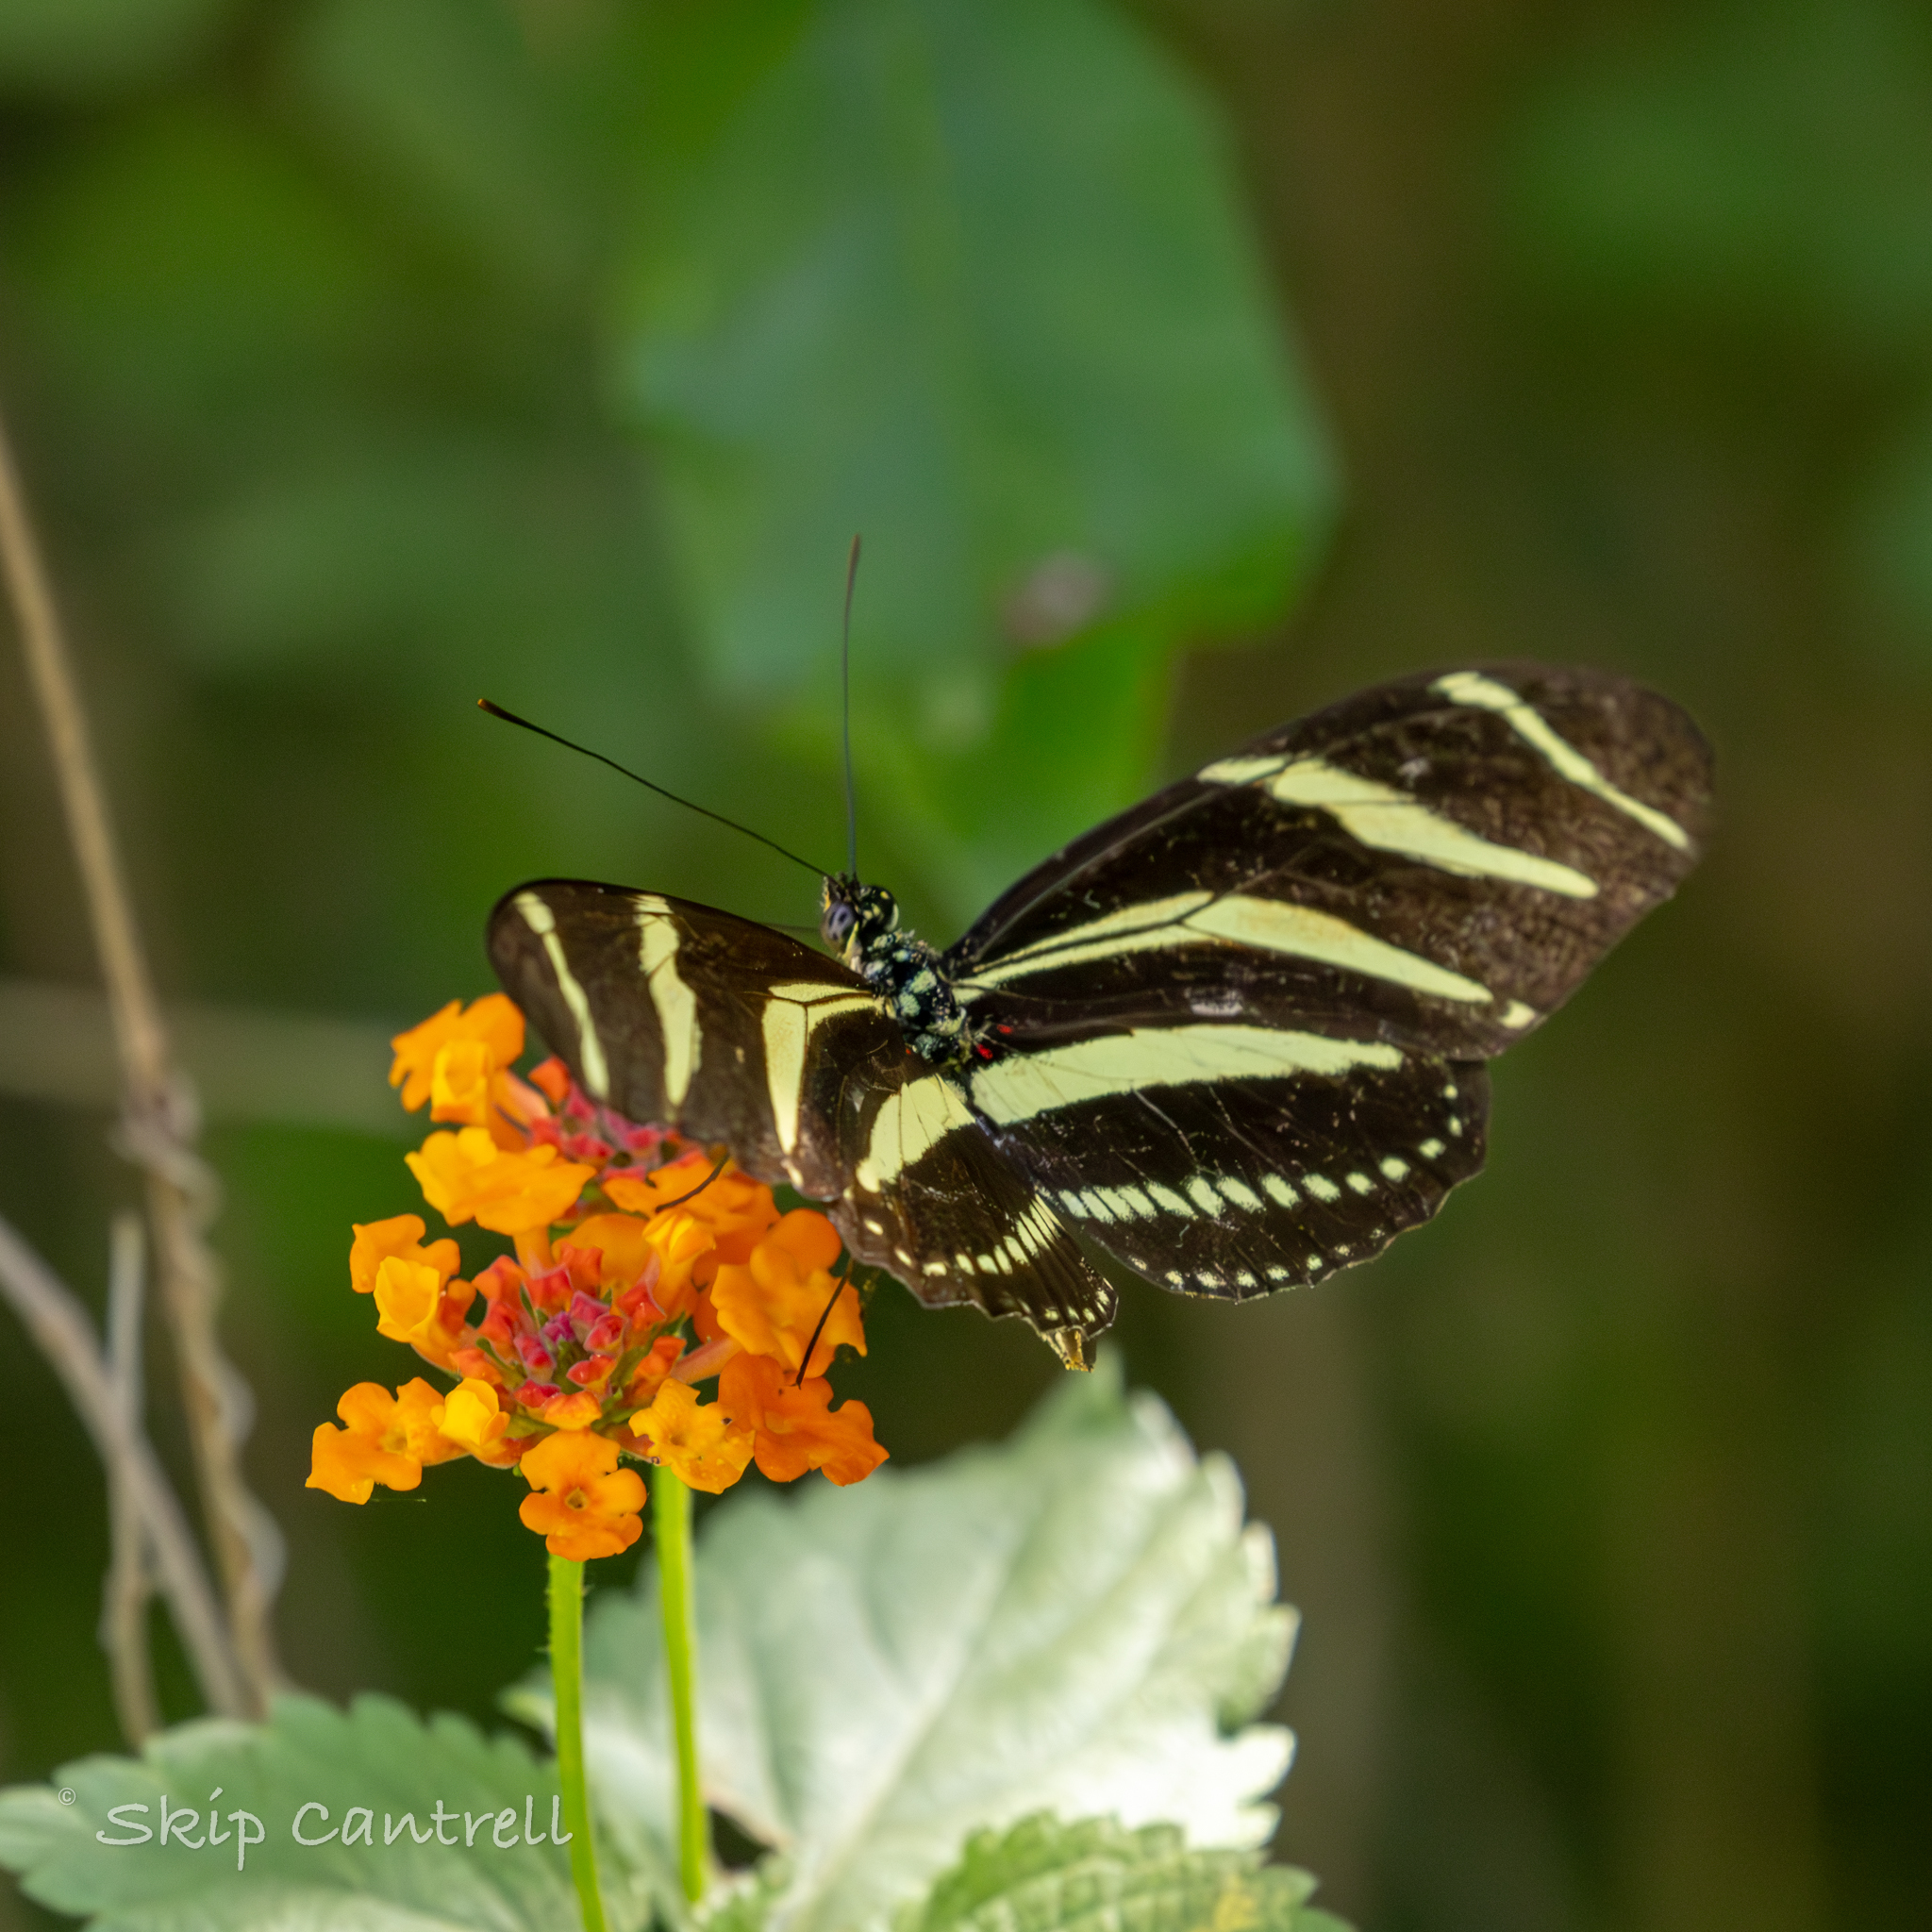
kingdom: Animalia
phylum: Arthropoda
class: Insecta
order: Lepidoptera
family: Nymphalidae
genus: Heliconius
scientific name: Heliconius charithonia
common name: Zebra long wing
